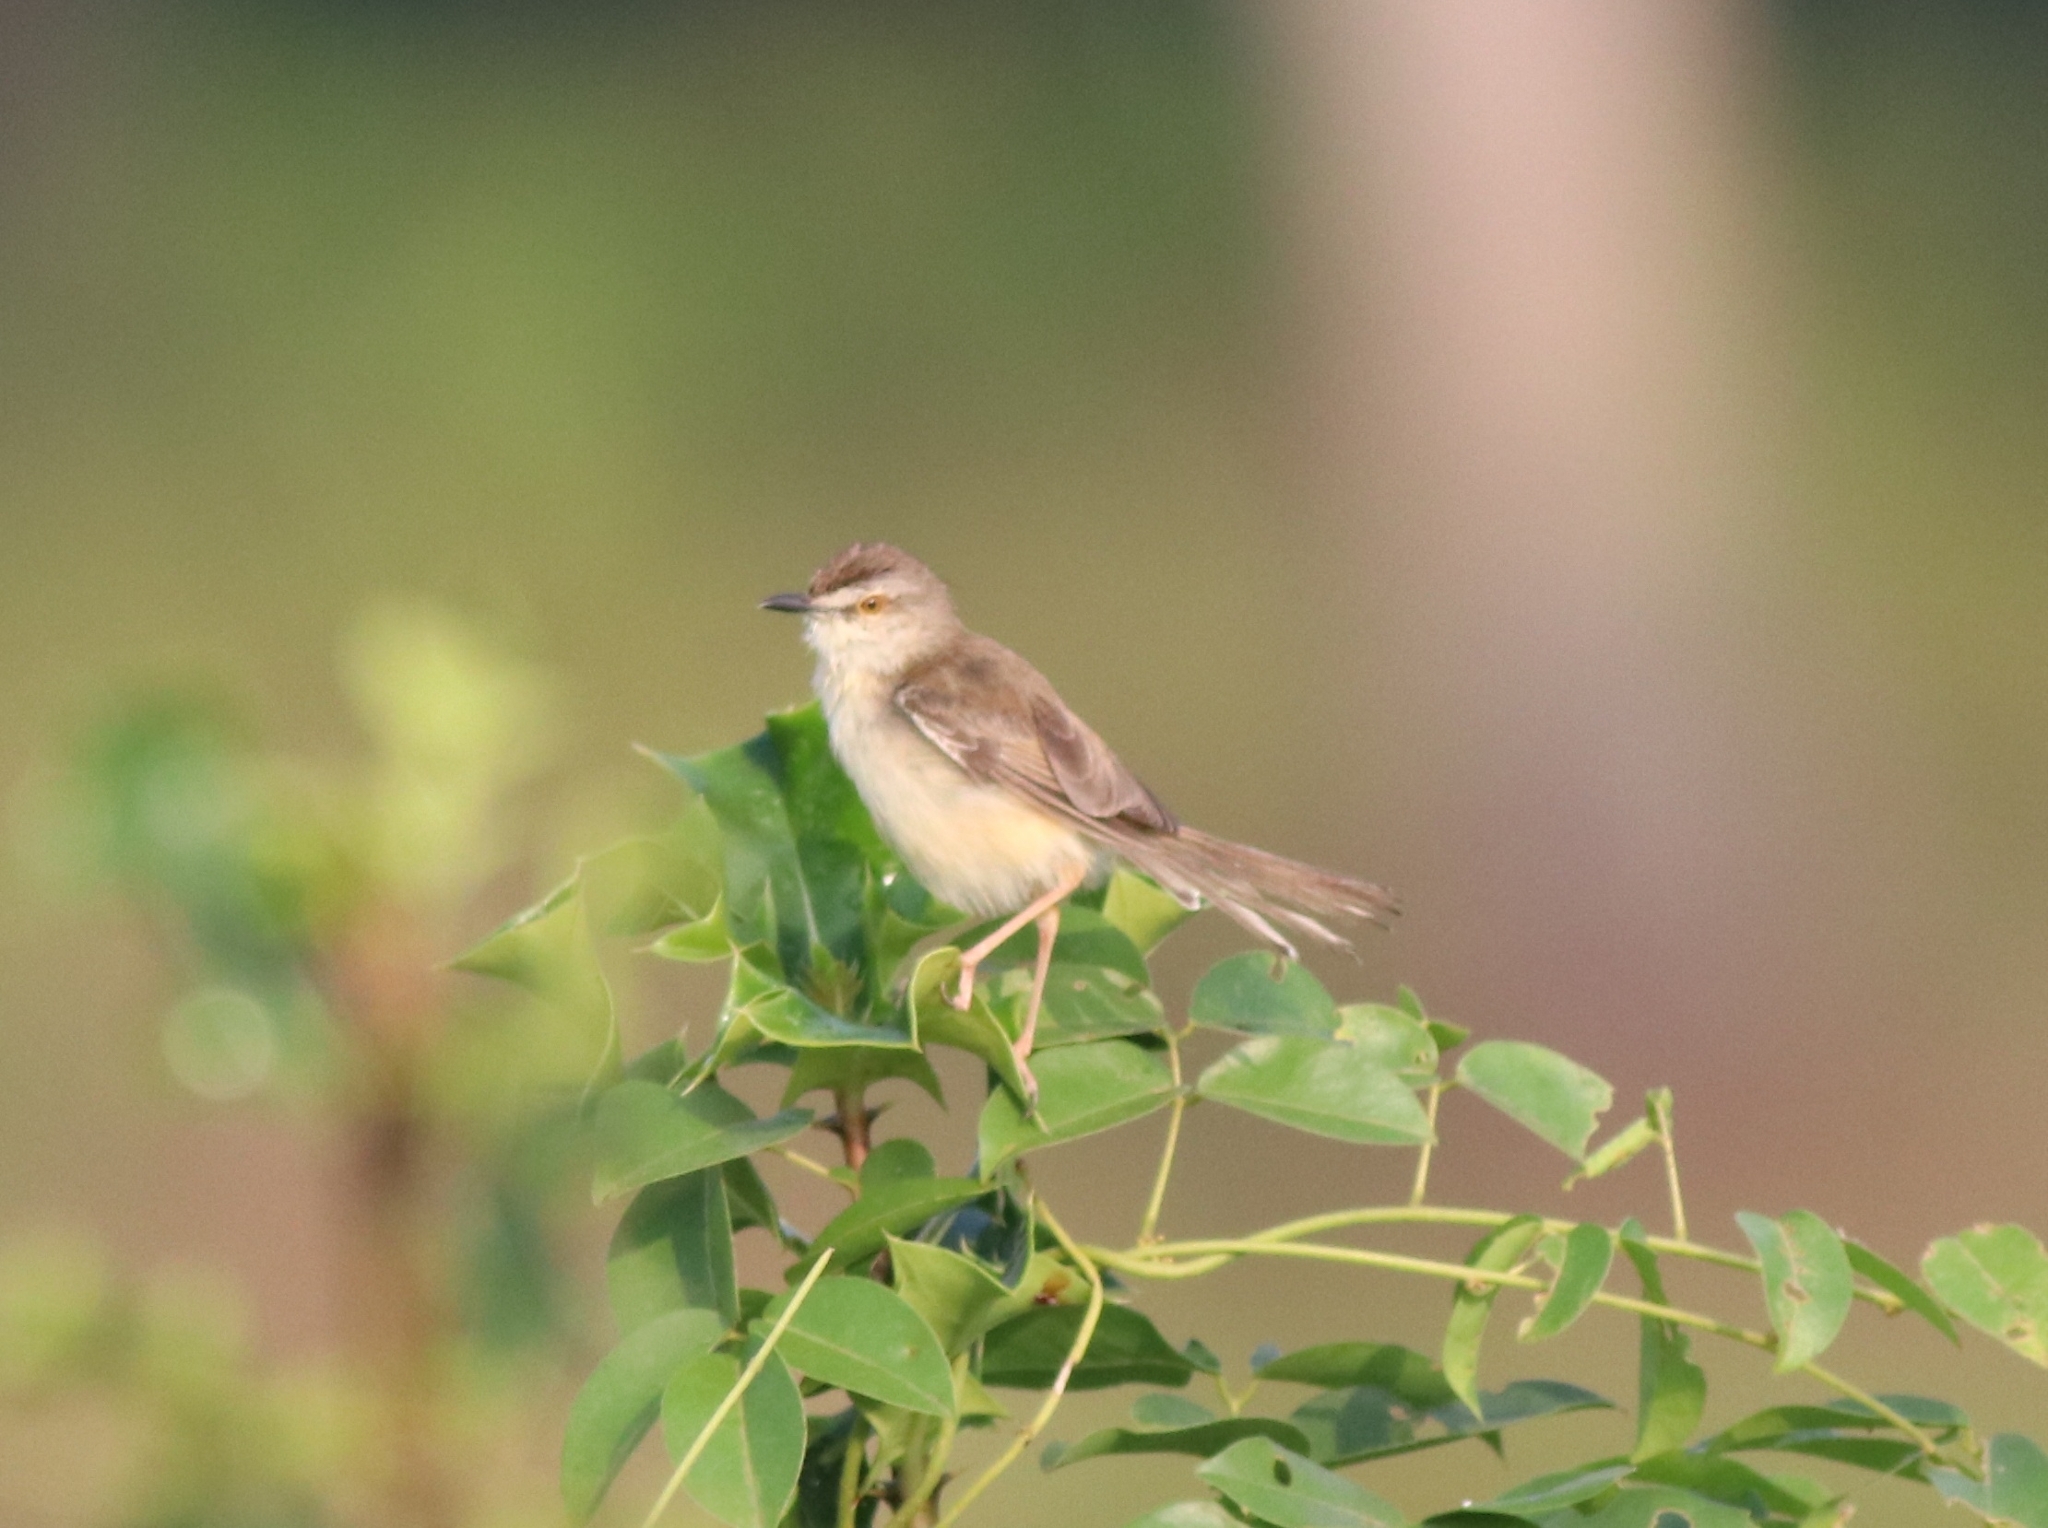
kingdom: Animalia
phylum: Chordata
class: Aves
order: Passeriformes
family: Cisticolidae
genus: Prinia
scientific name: Prinia inornata
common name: Plain prinia
